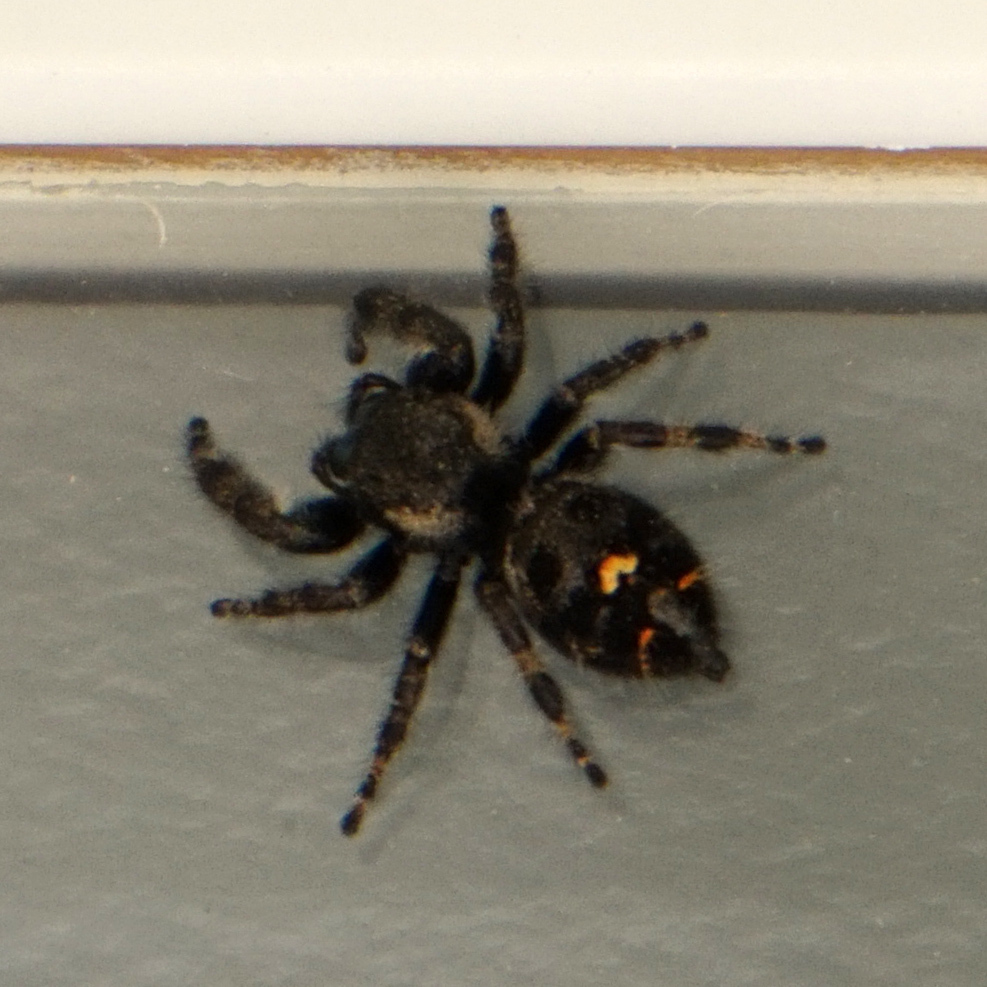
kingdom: Animalia
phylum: Arthropoda
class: Arachnida
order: Araneae
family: Salticidae
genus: Phidippus
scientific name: Phidippus audax
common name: Bold jumper
